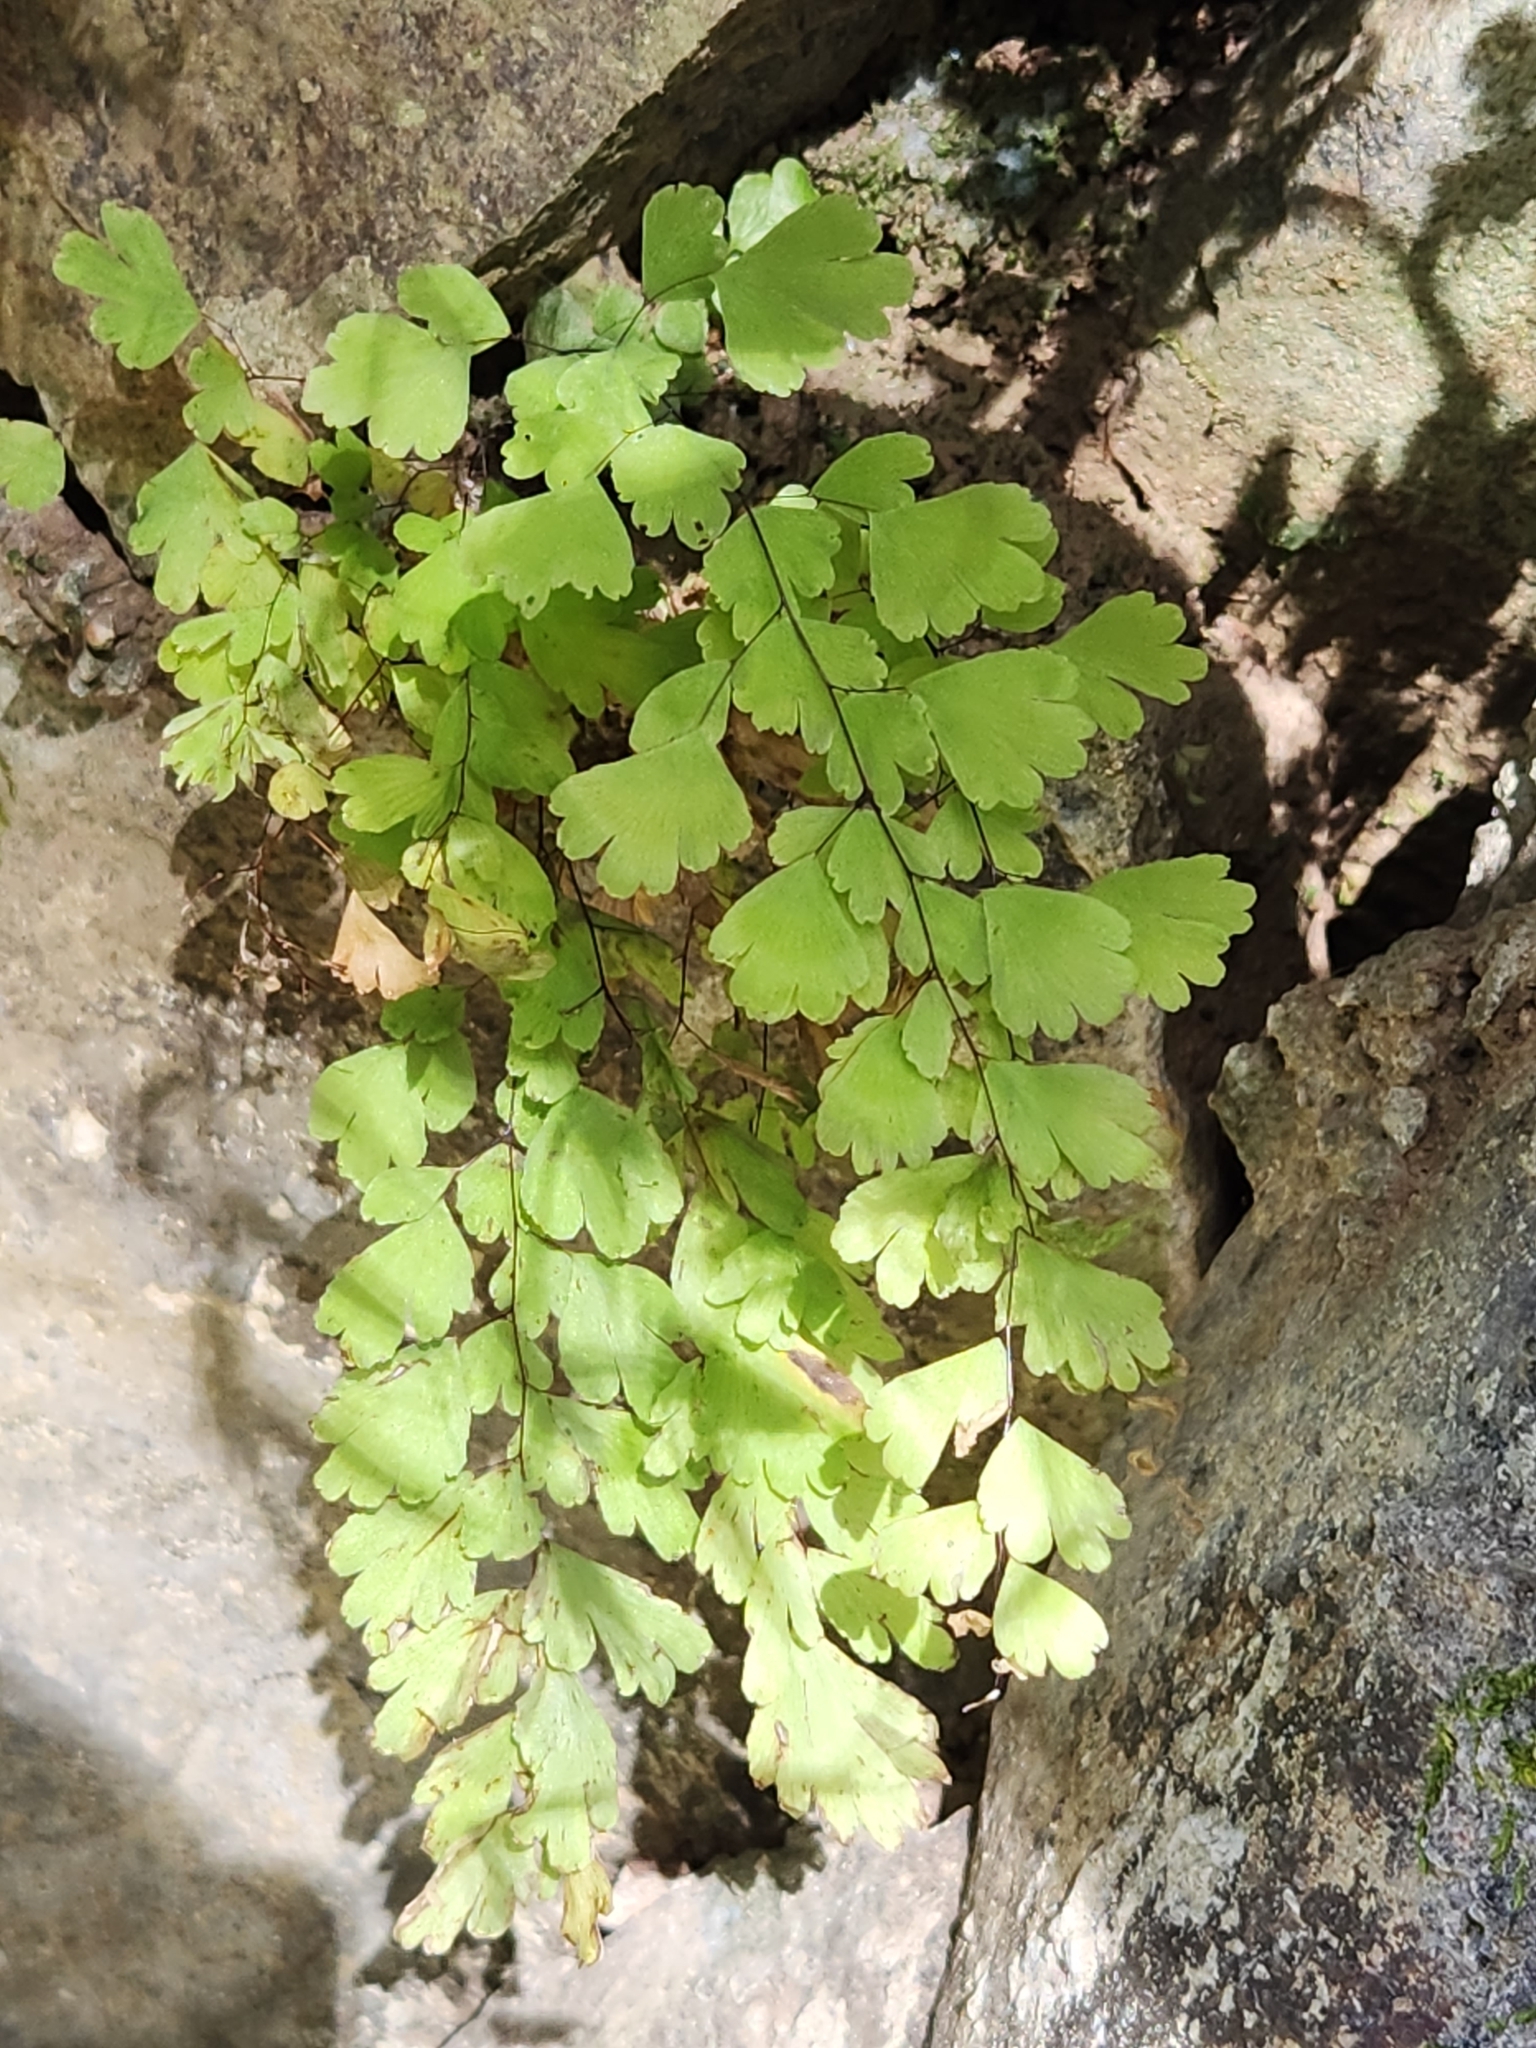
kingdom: Plantae
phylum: Tracheophyta
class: Polypodiopsida
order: Polypodiales
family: Pteridaceae
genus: Adiantum
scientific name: Adiantum andicola
